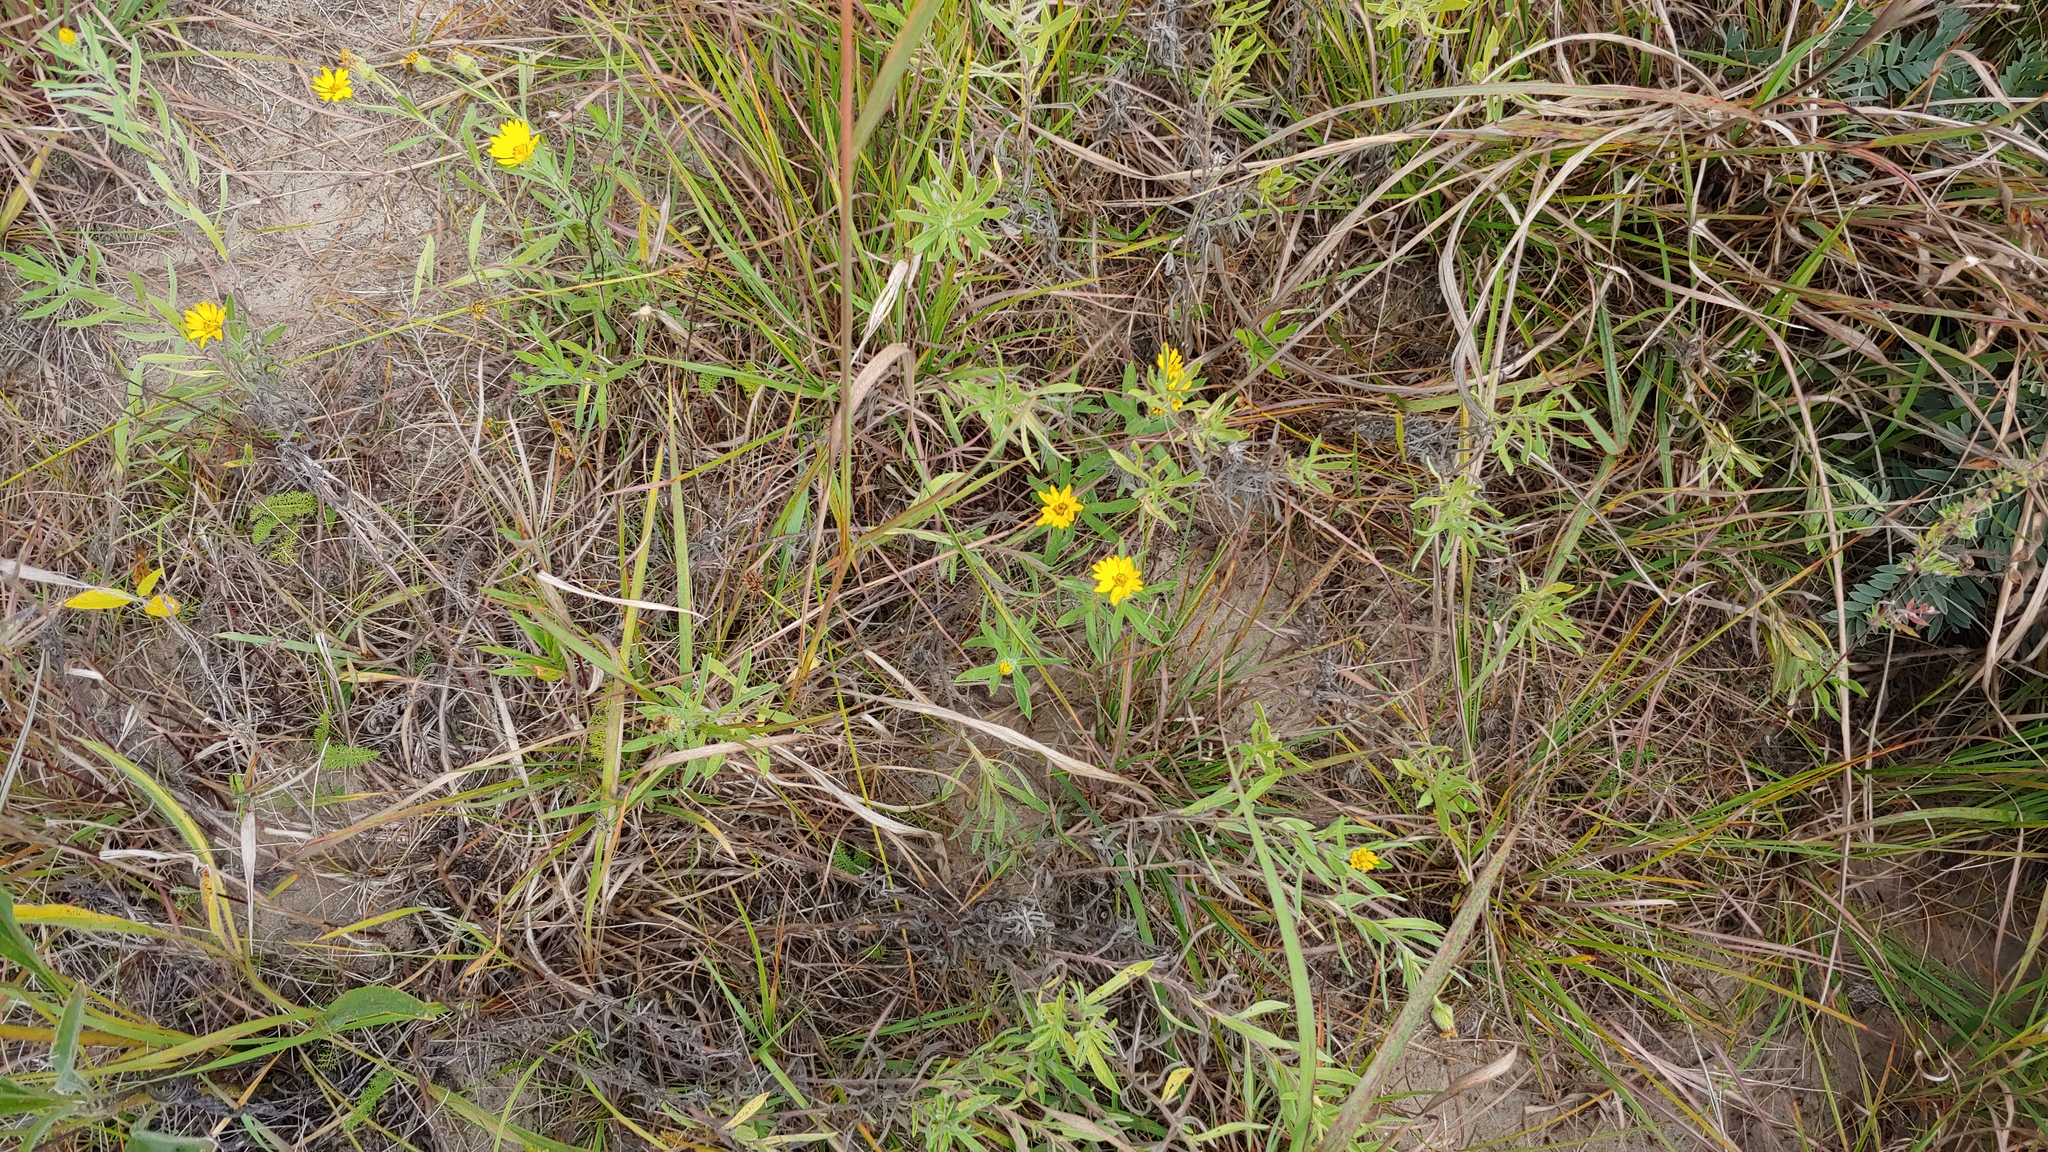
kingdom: Plantae
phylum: Tracheophyta
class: Magnoliopsida
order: Asterales
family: Asteraceae
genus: Heterotheca
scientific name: Heterotheca camporum
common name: Prairie golden-aster
